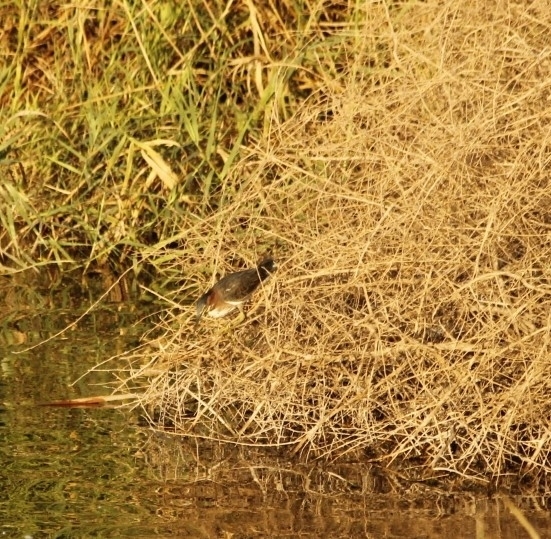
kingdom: Animalia
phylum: Chordata
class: Aves
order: Pelecaniformes
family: Ardeidae
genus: Butorides
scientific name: Butorides virescens
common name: Green heron
